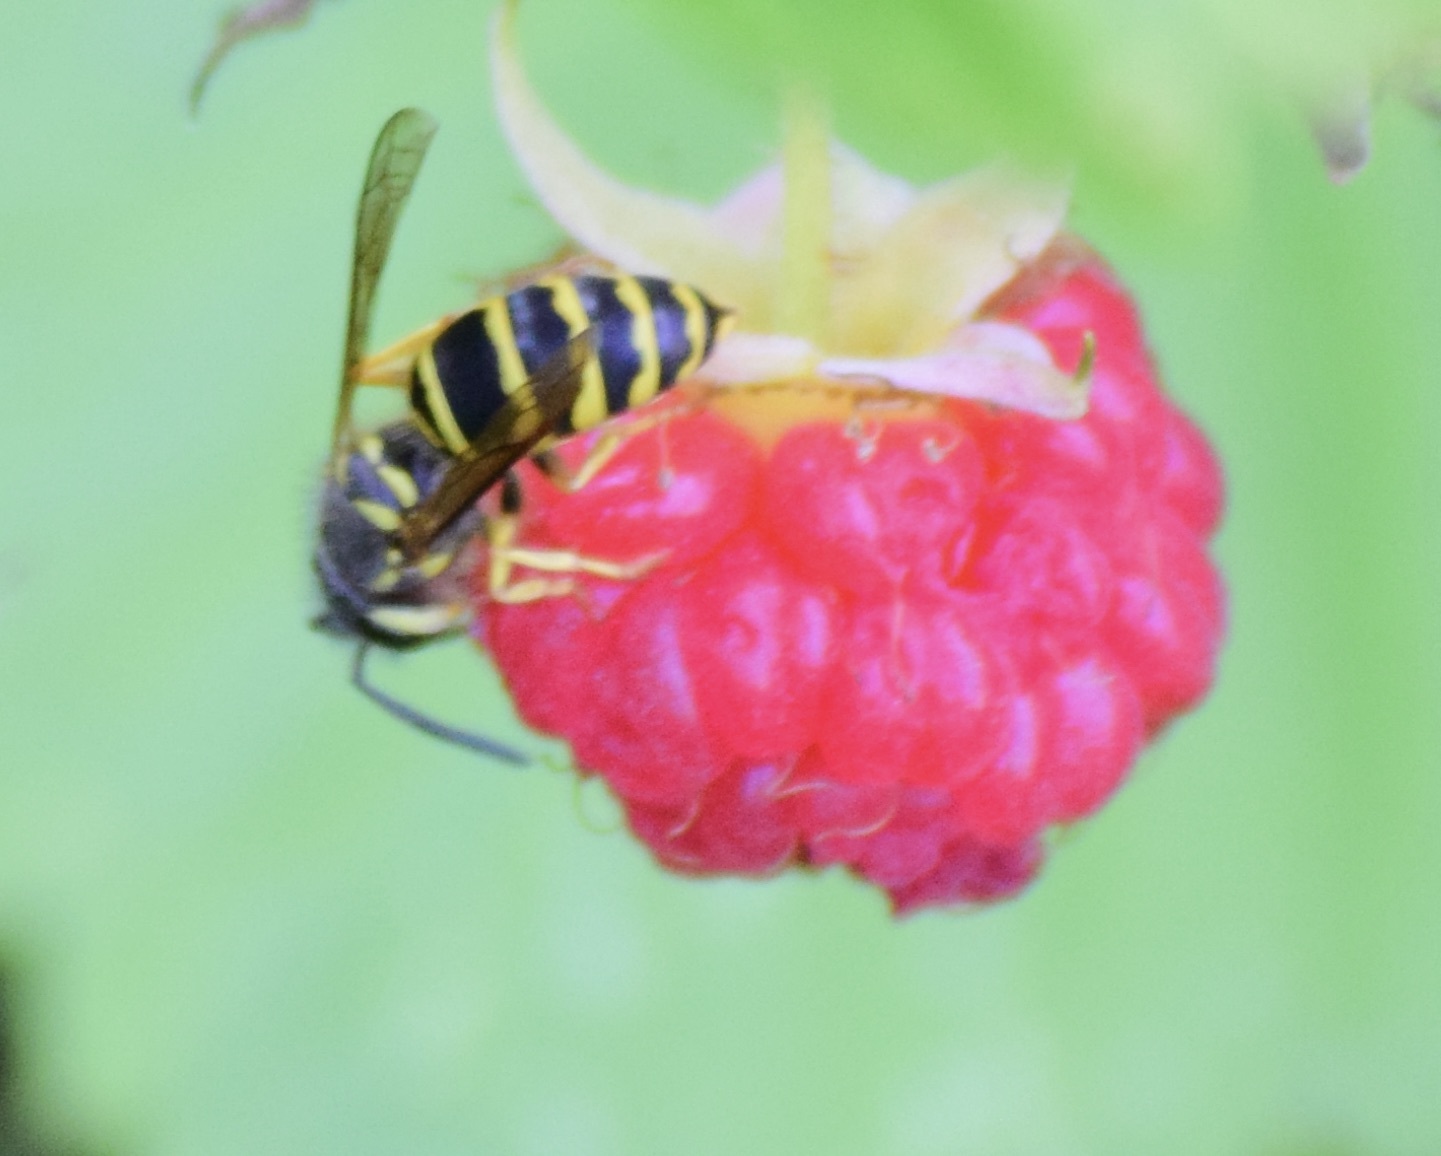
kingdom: Animalia
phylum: Arthropoda
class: Insecta
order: Hymenoptera
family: Vespidae
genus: Vespula
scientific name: Vespula maculifrons
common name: Eastern yellowjacket
